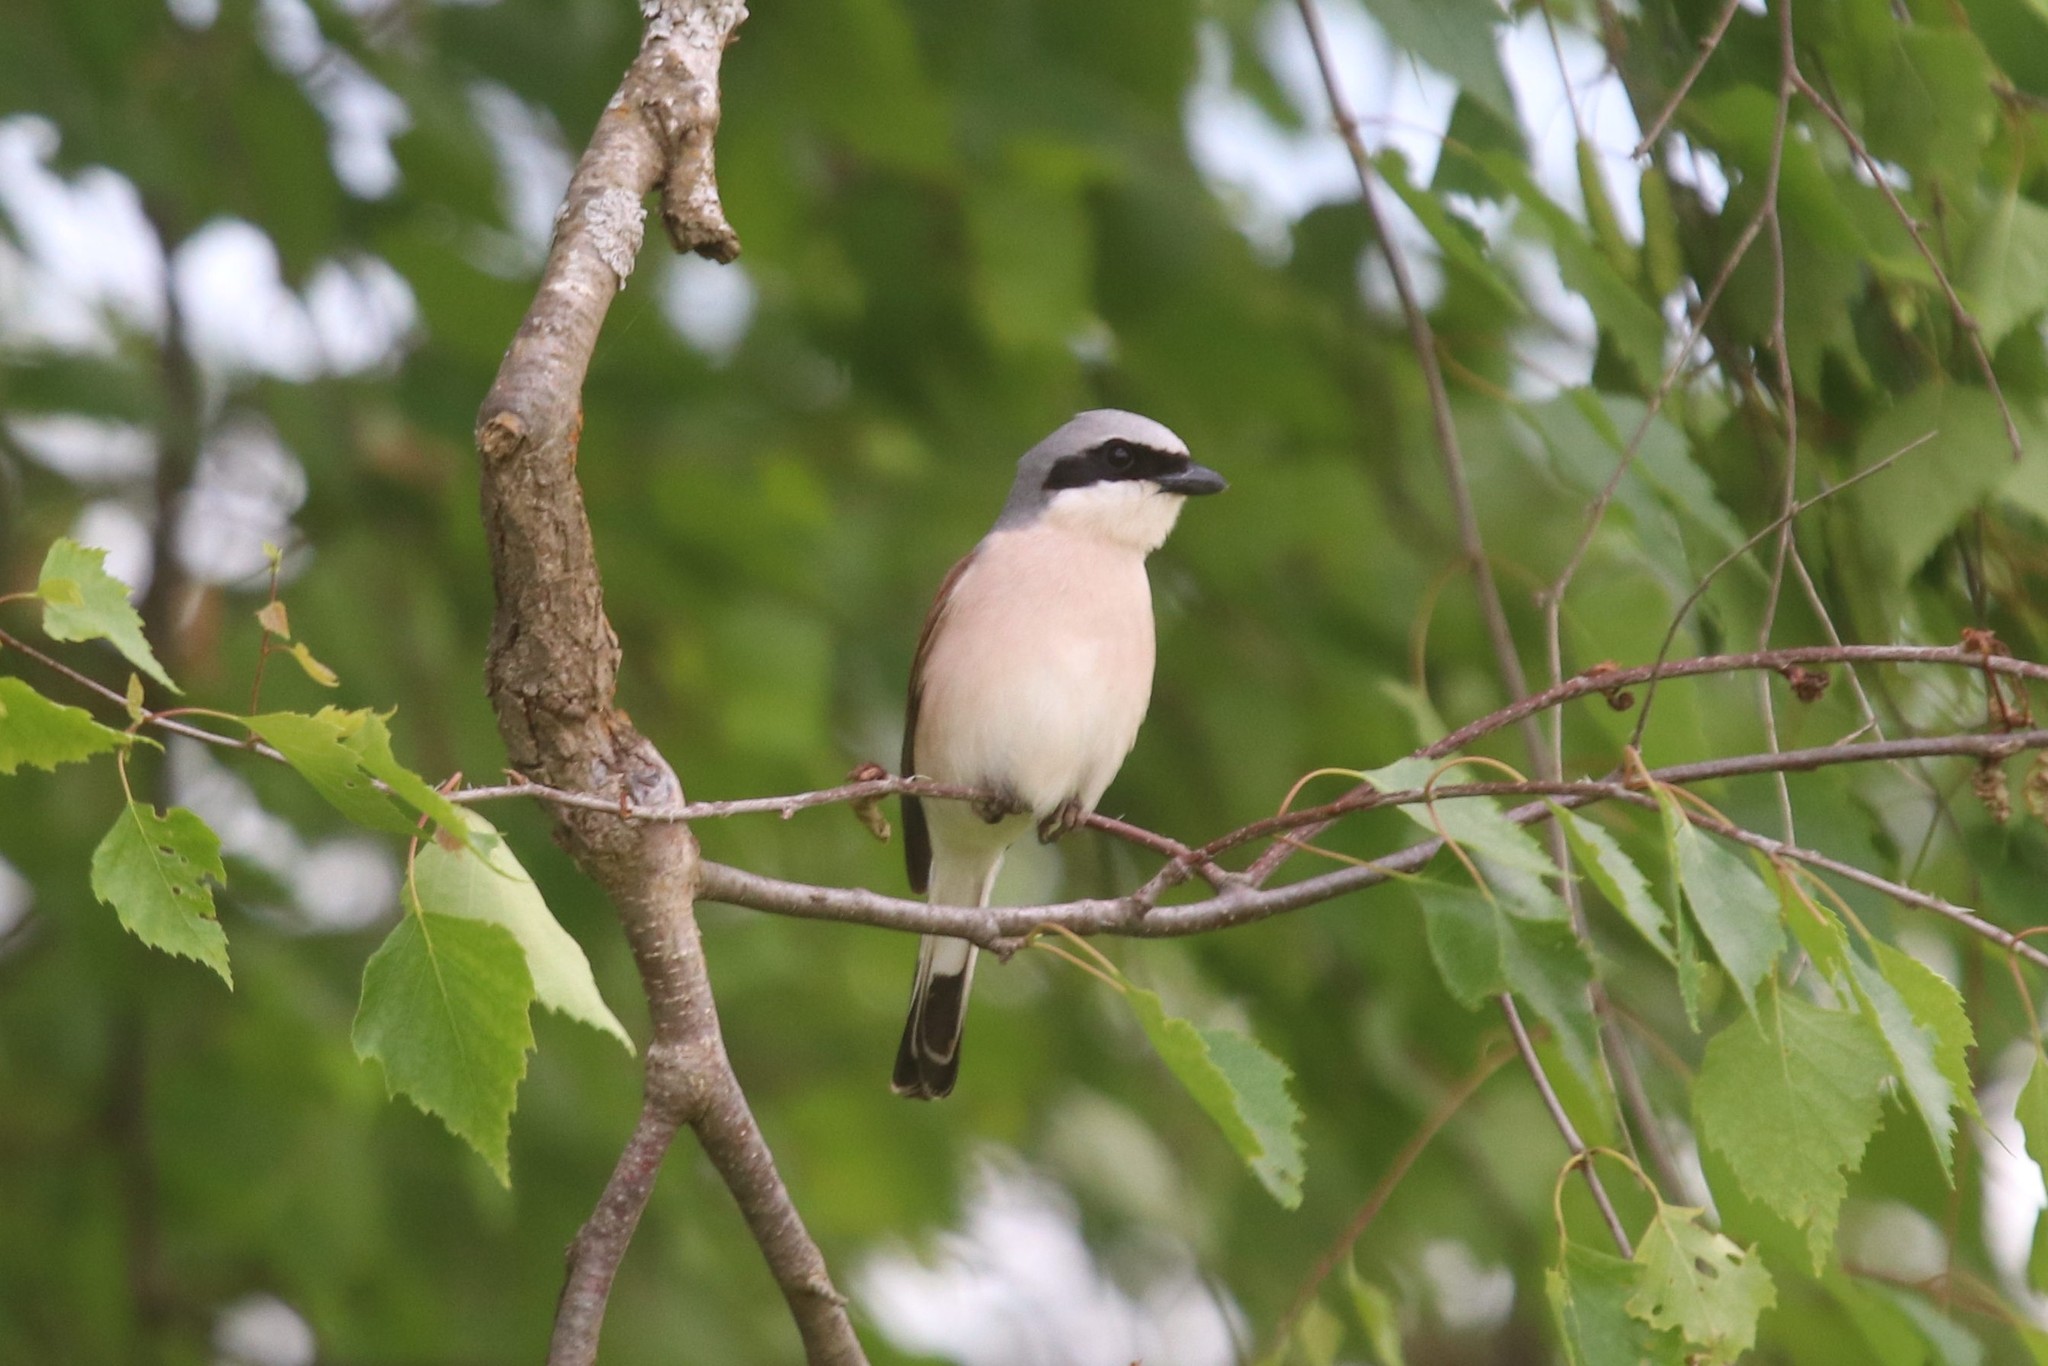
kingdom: Animalia
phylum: Chordata
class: Aves
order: Passeriformes
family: Laniidae
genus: Lanius
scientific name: Lanius collurio
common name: Red-backed shrike
